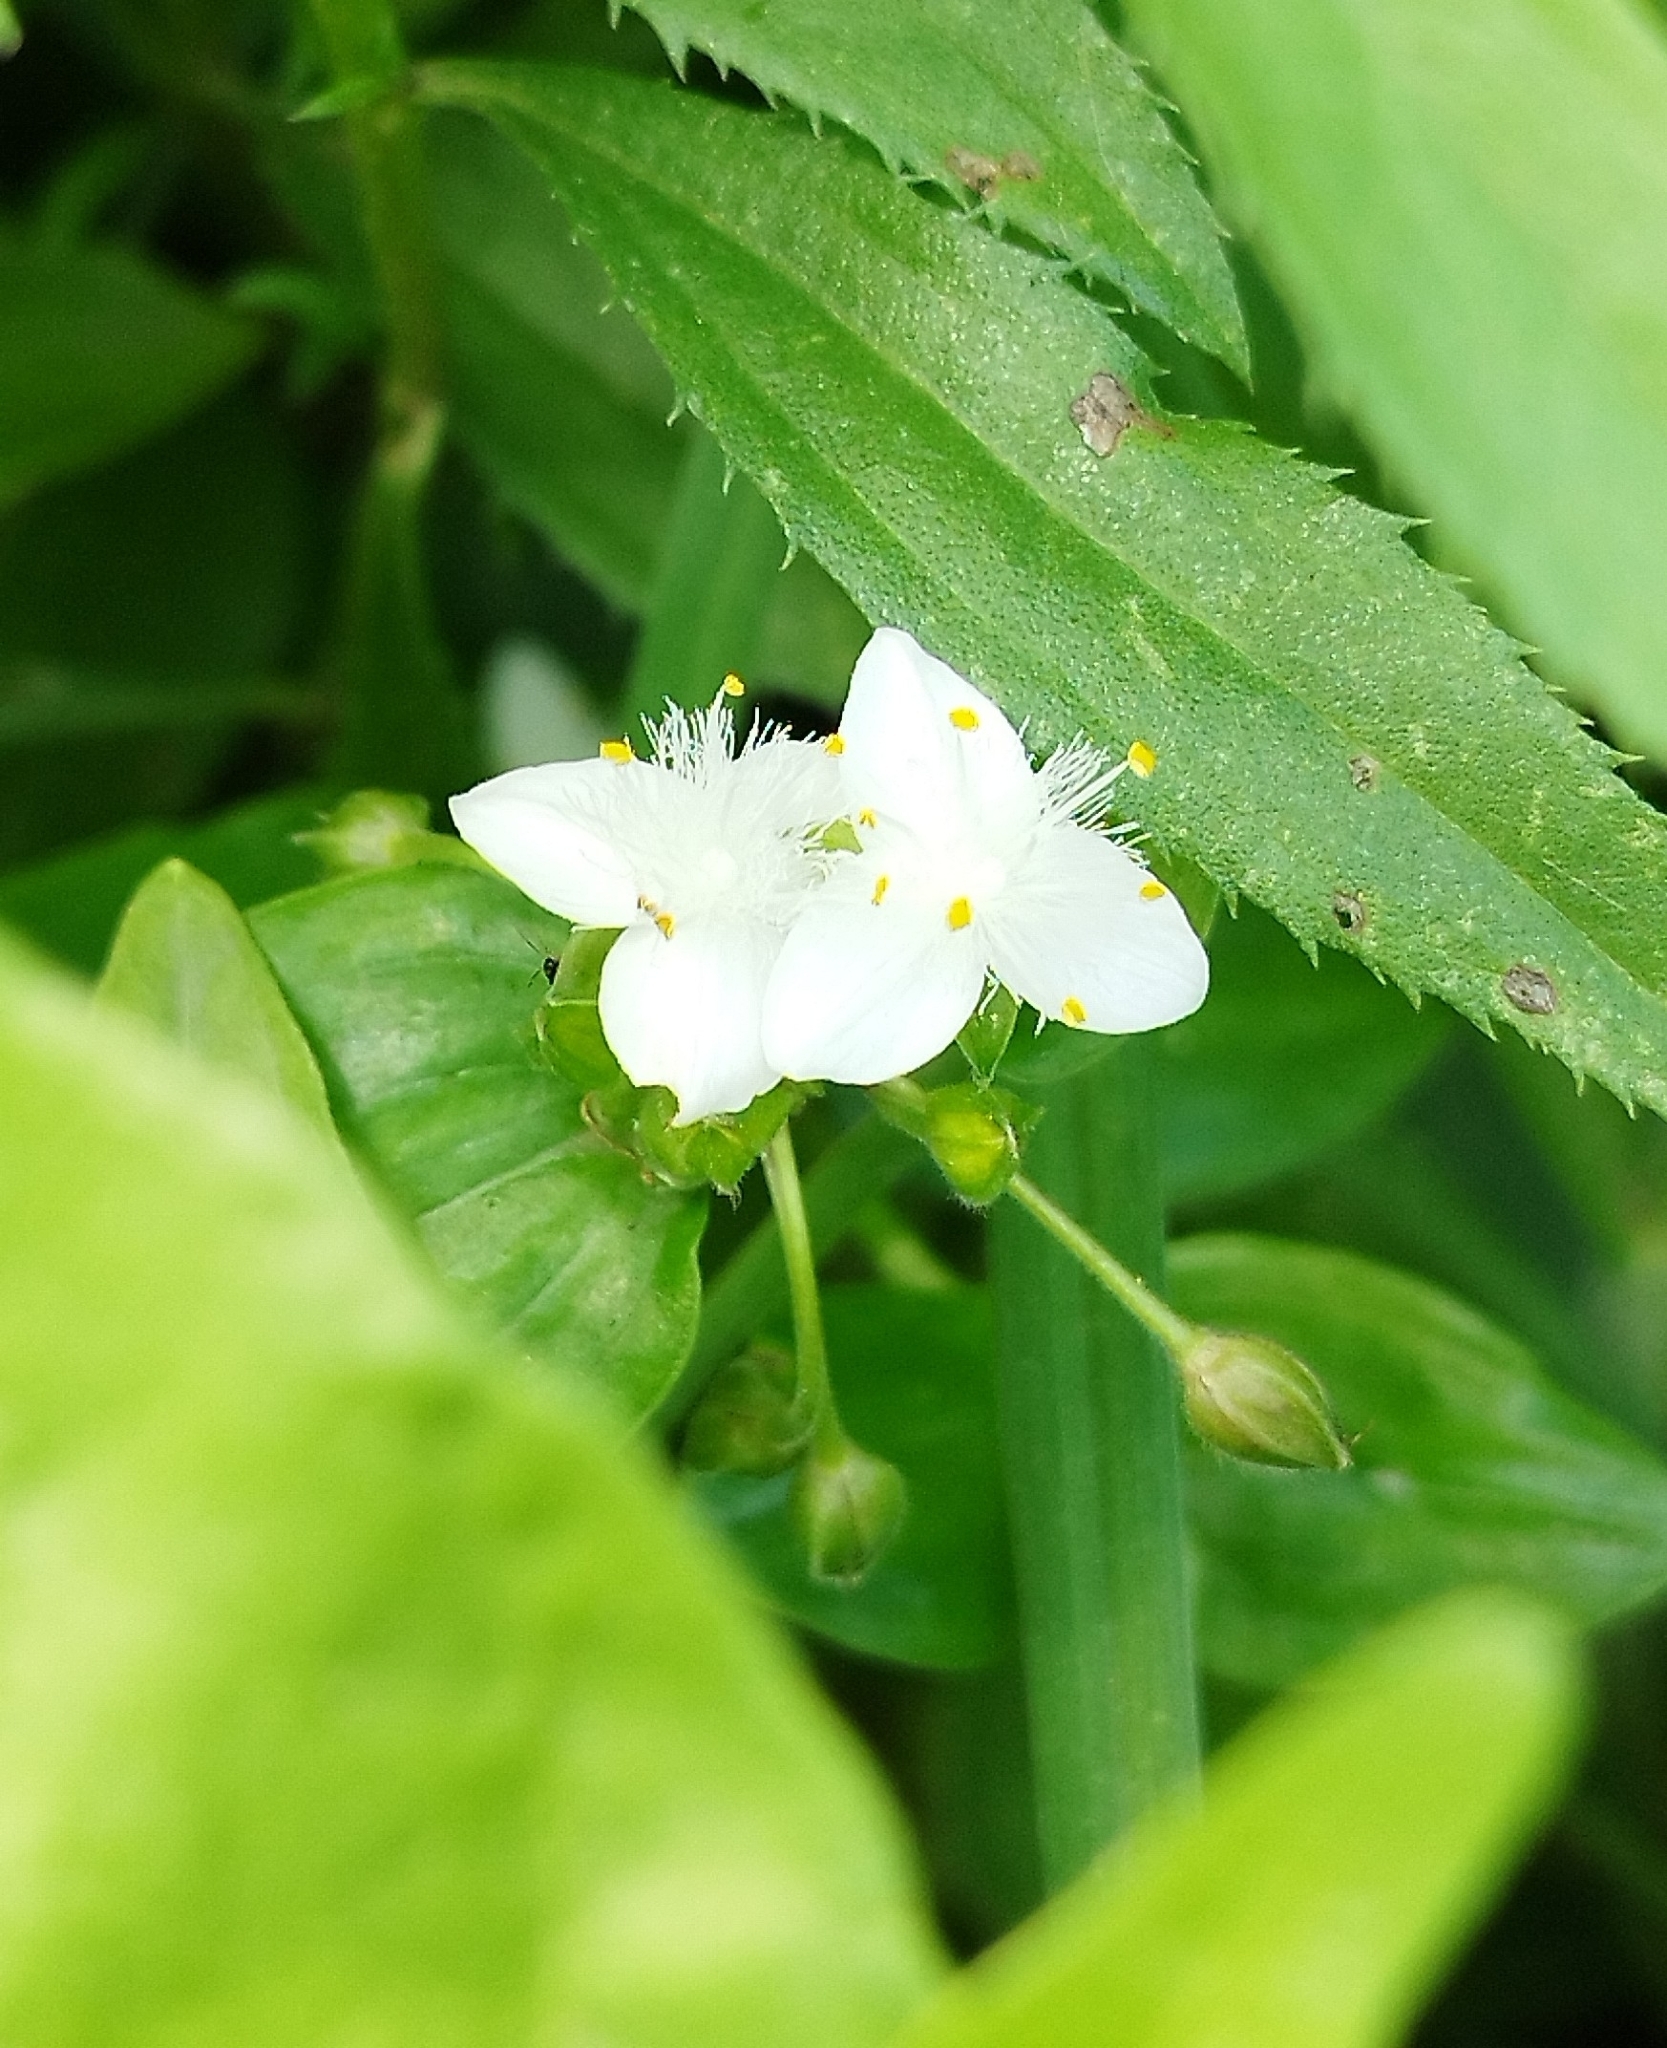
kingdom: Plantae
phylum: Tracheophyta
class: Liliopsida
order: Commelinales
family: Commelinaceae
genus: Tradescantia
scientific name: Tradescantia fluminensis
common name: Wandering-jew
